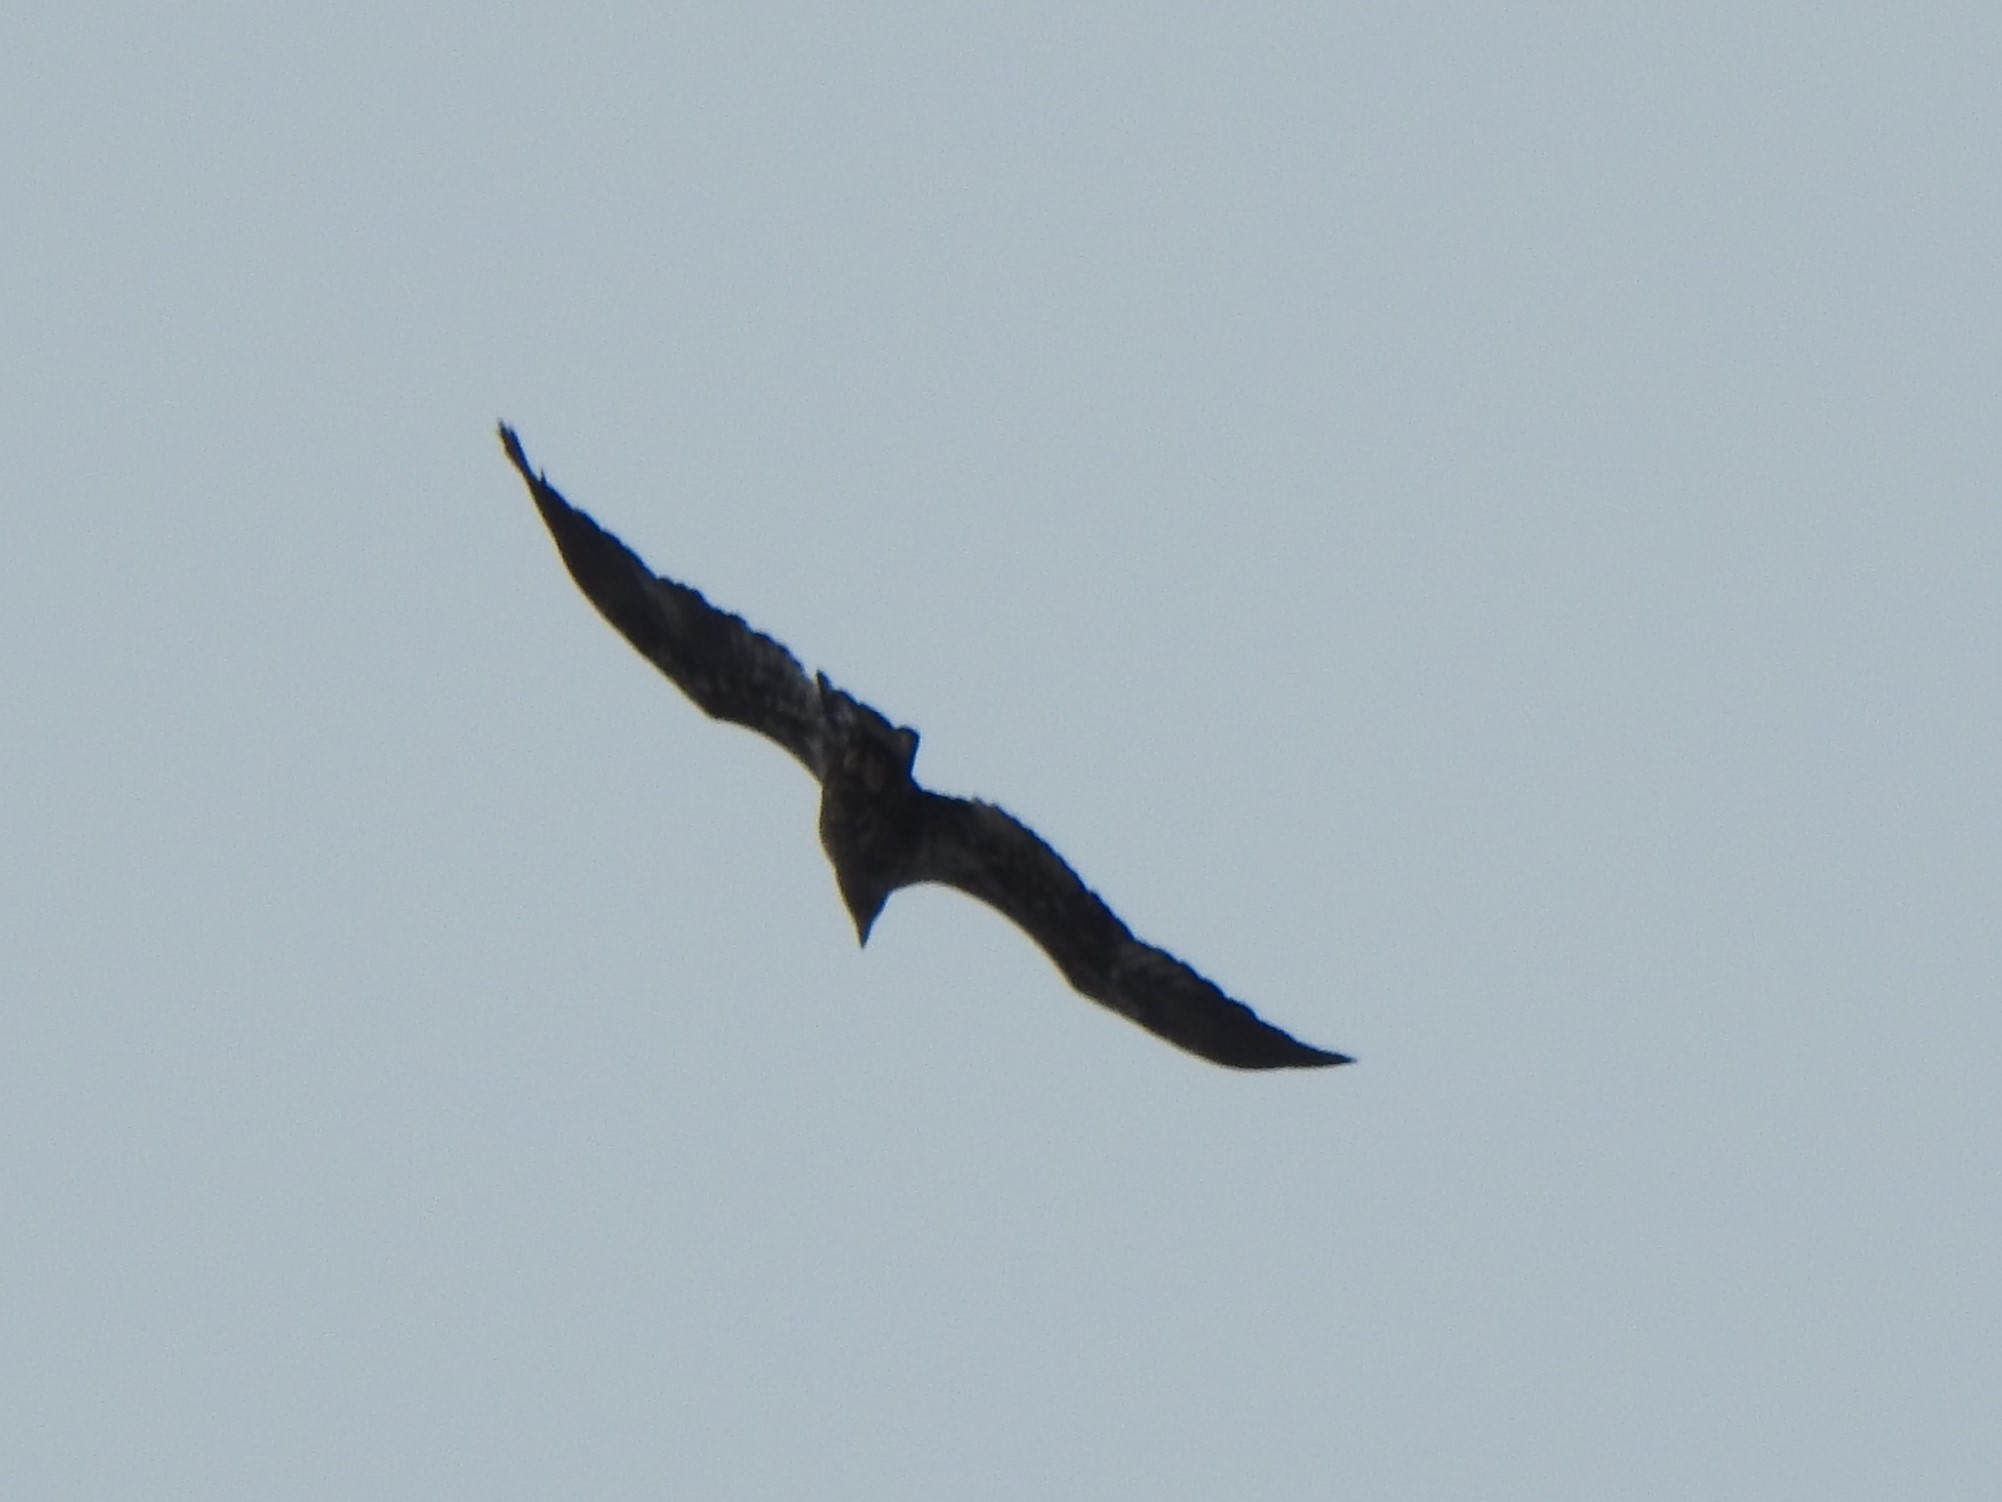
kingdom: Animalia
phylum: Chordata
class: Aves
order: Accipitriformes
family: Accipitridae
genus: Haliaeetus
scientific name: Haliaeetus leucocephalus
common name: Bald eagle
